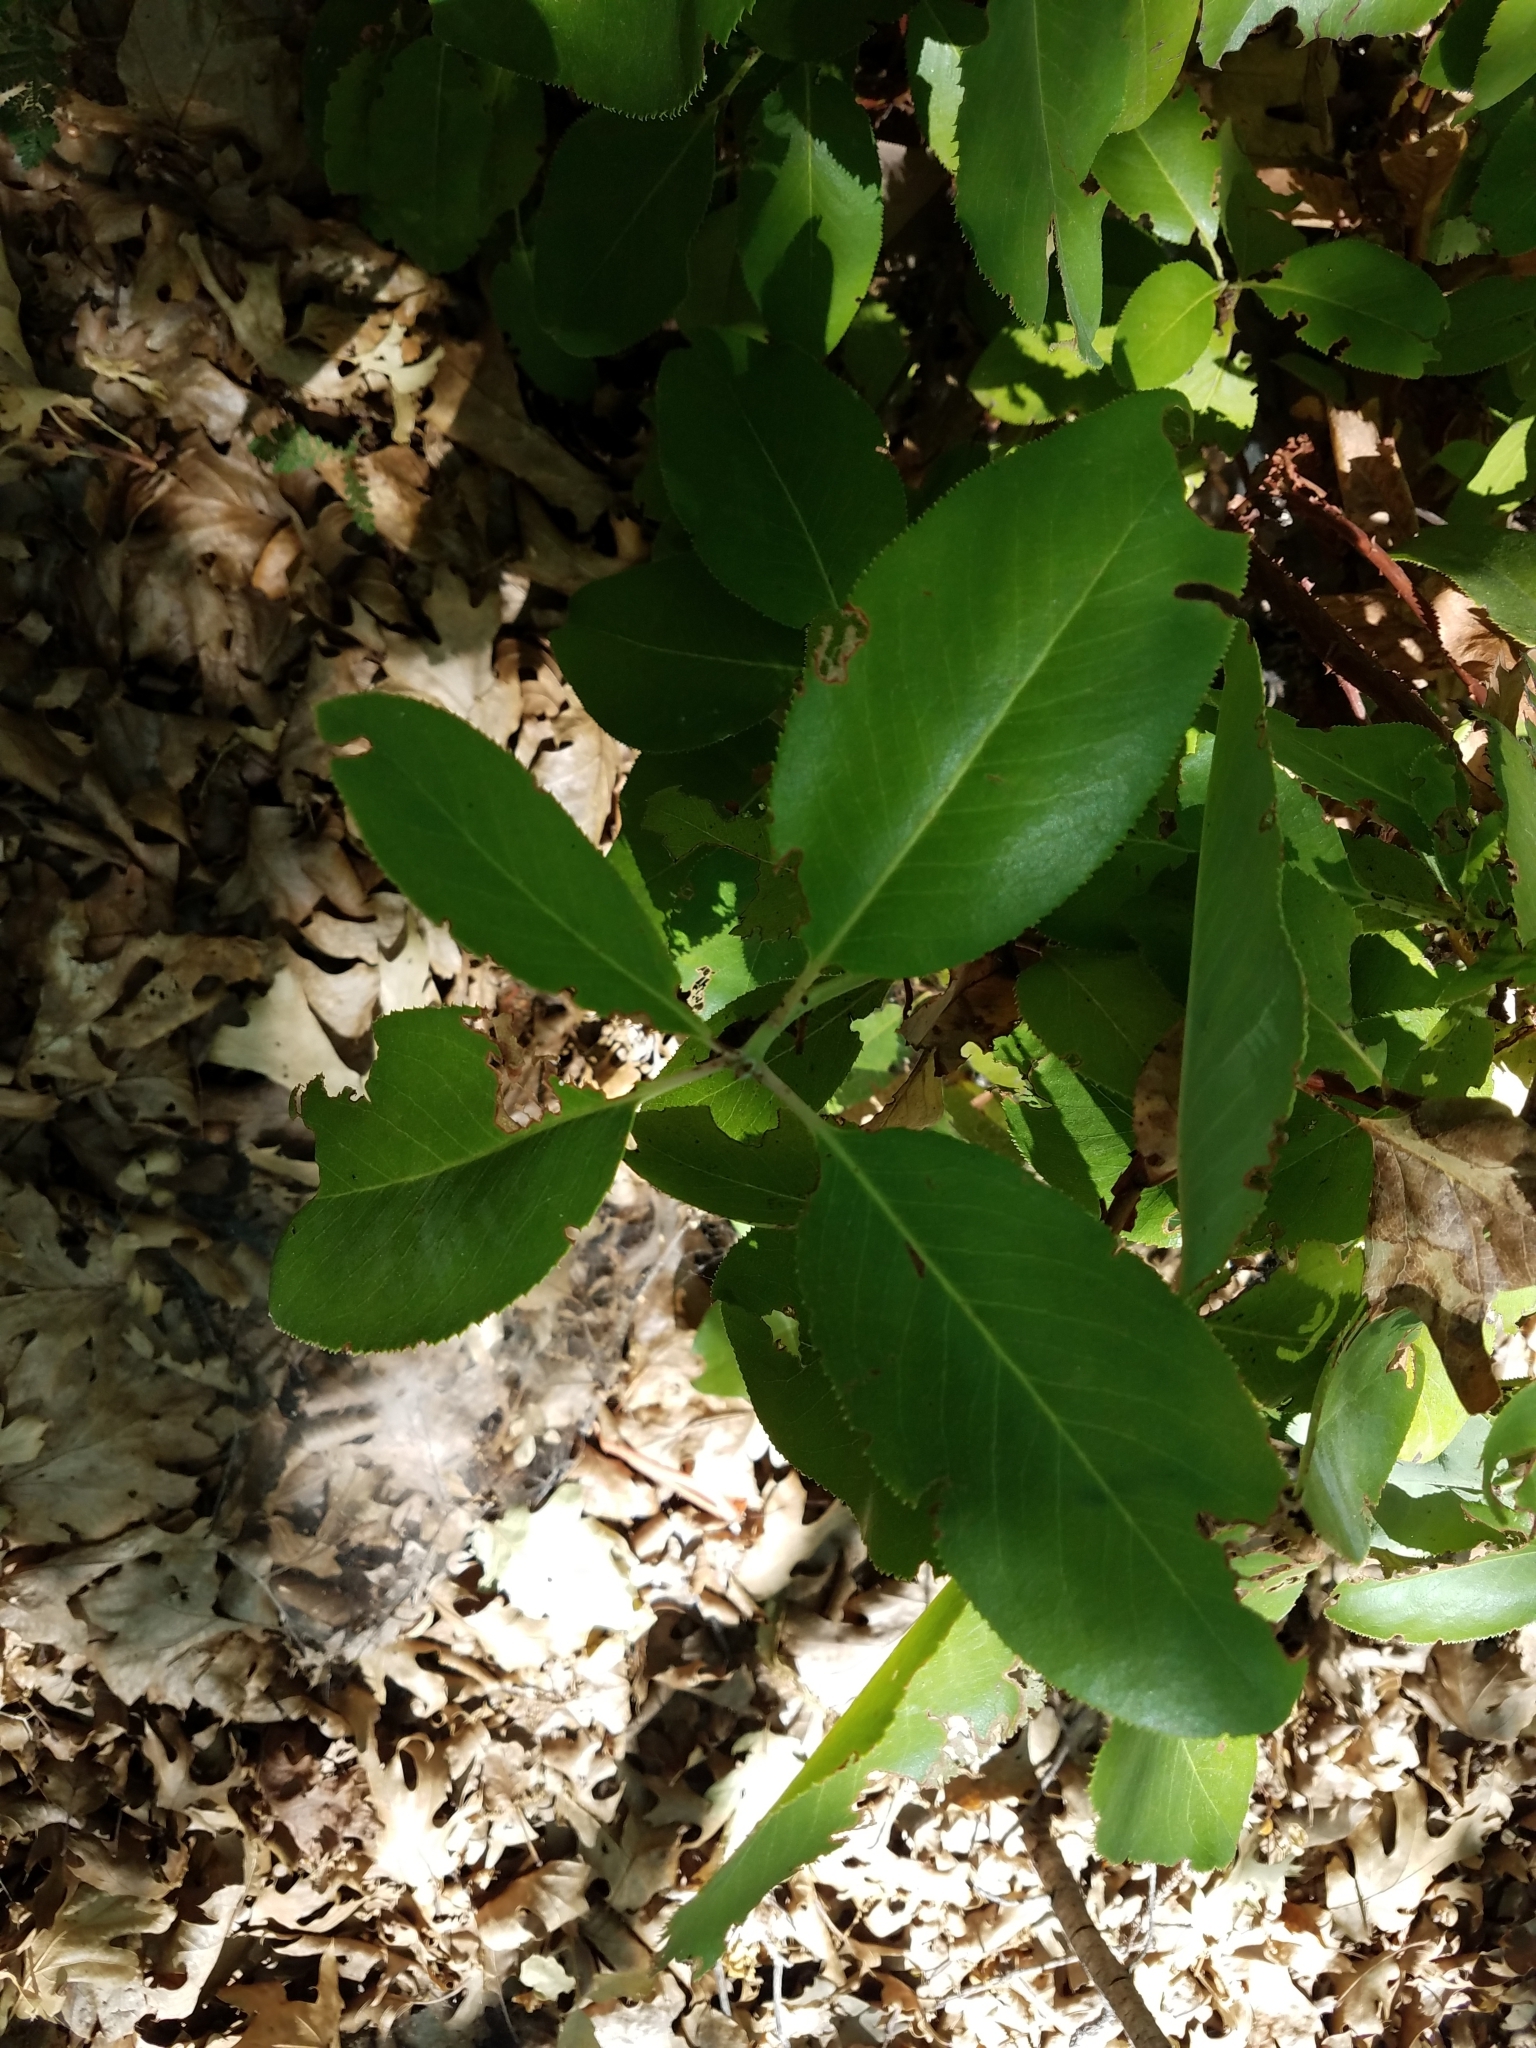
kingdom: Plantae
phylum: Tracheophyta
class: Magnoliopsida
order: Ericales
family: Ericaceae
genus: Arbutus
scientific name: Arbutus menziesii
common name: Pacific madrone
